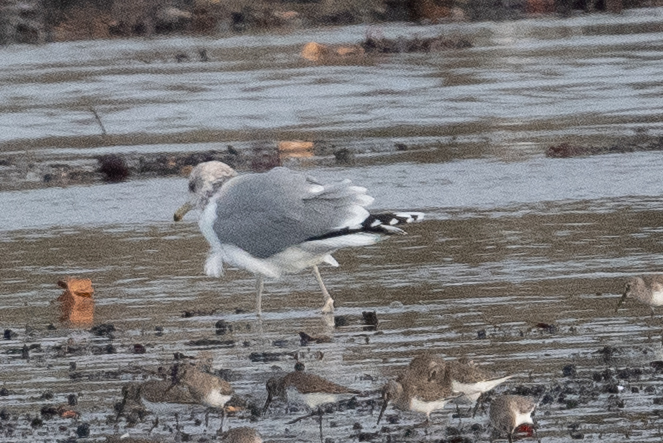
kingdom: Animalia
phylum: Chordata
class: Aves
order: Charadriiformes
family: Laridae
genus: Larus
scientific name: Larus californicus
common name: California gull
